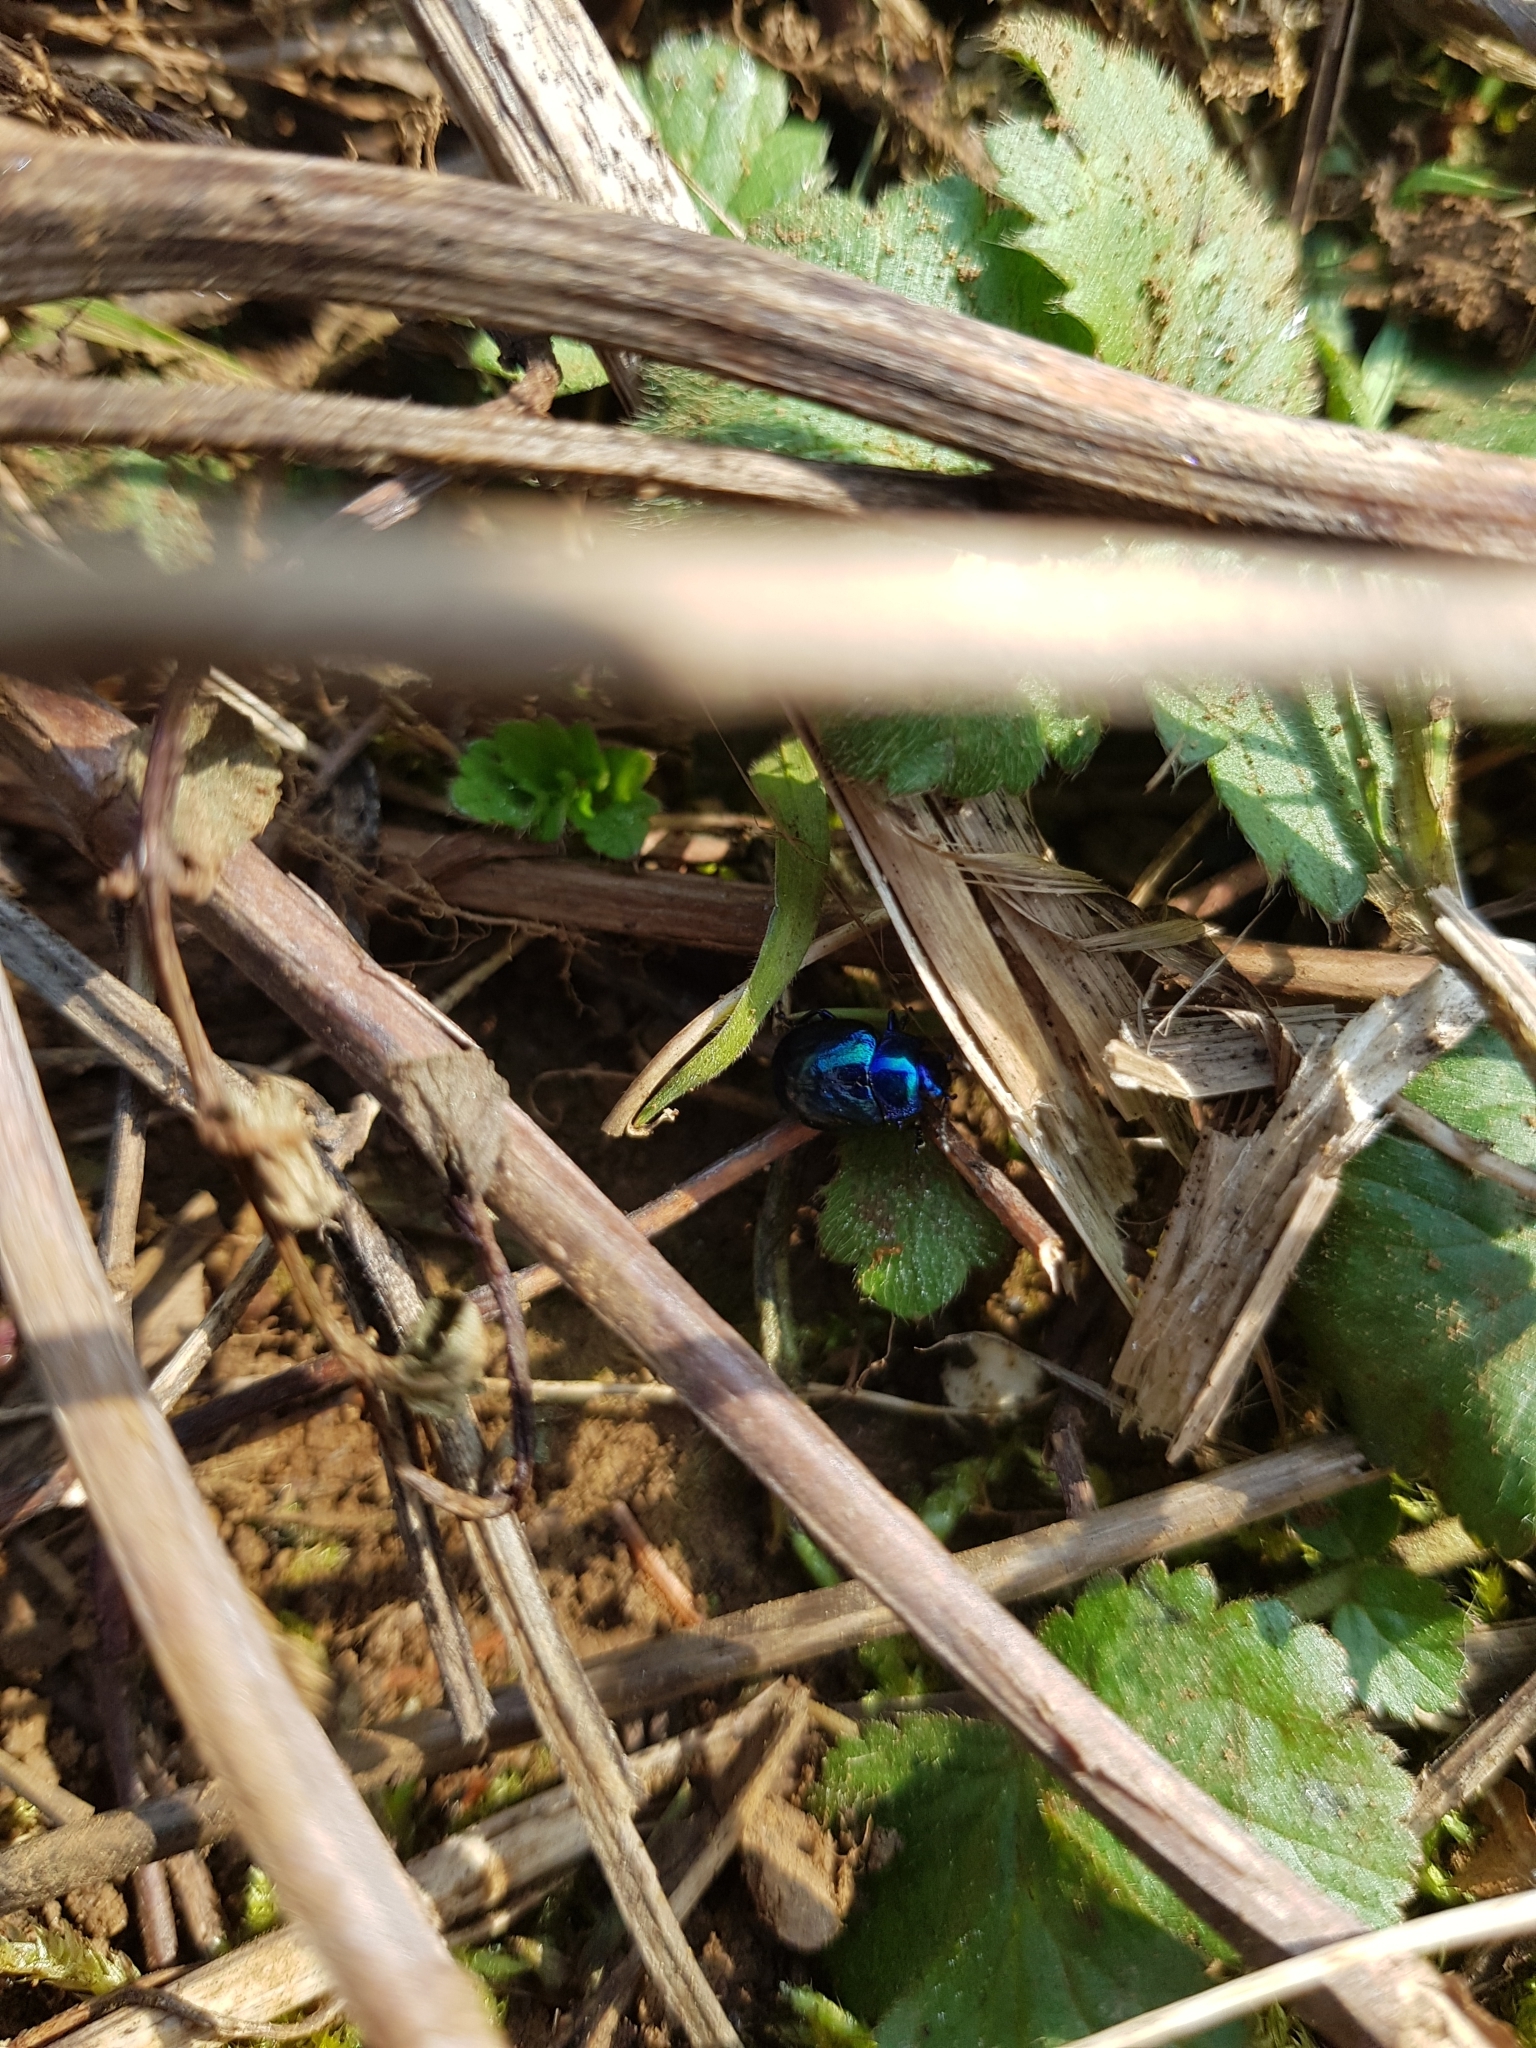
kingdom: Animalia
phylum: Arthropoda
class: Insecta
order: Coleoptera
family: Chrysomelidae
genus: Chrysolina
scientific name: Chrysolina coerulans
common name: Blue mint beetle
